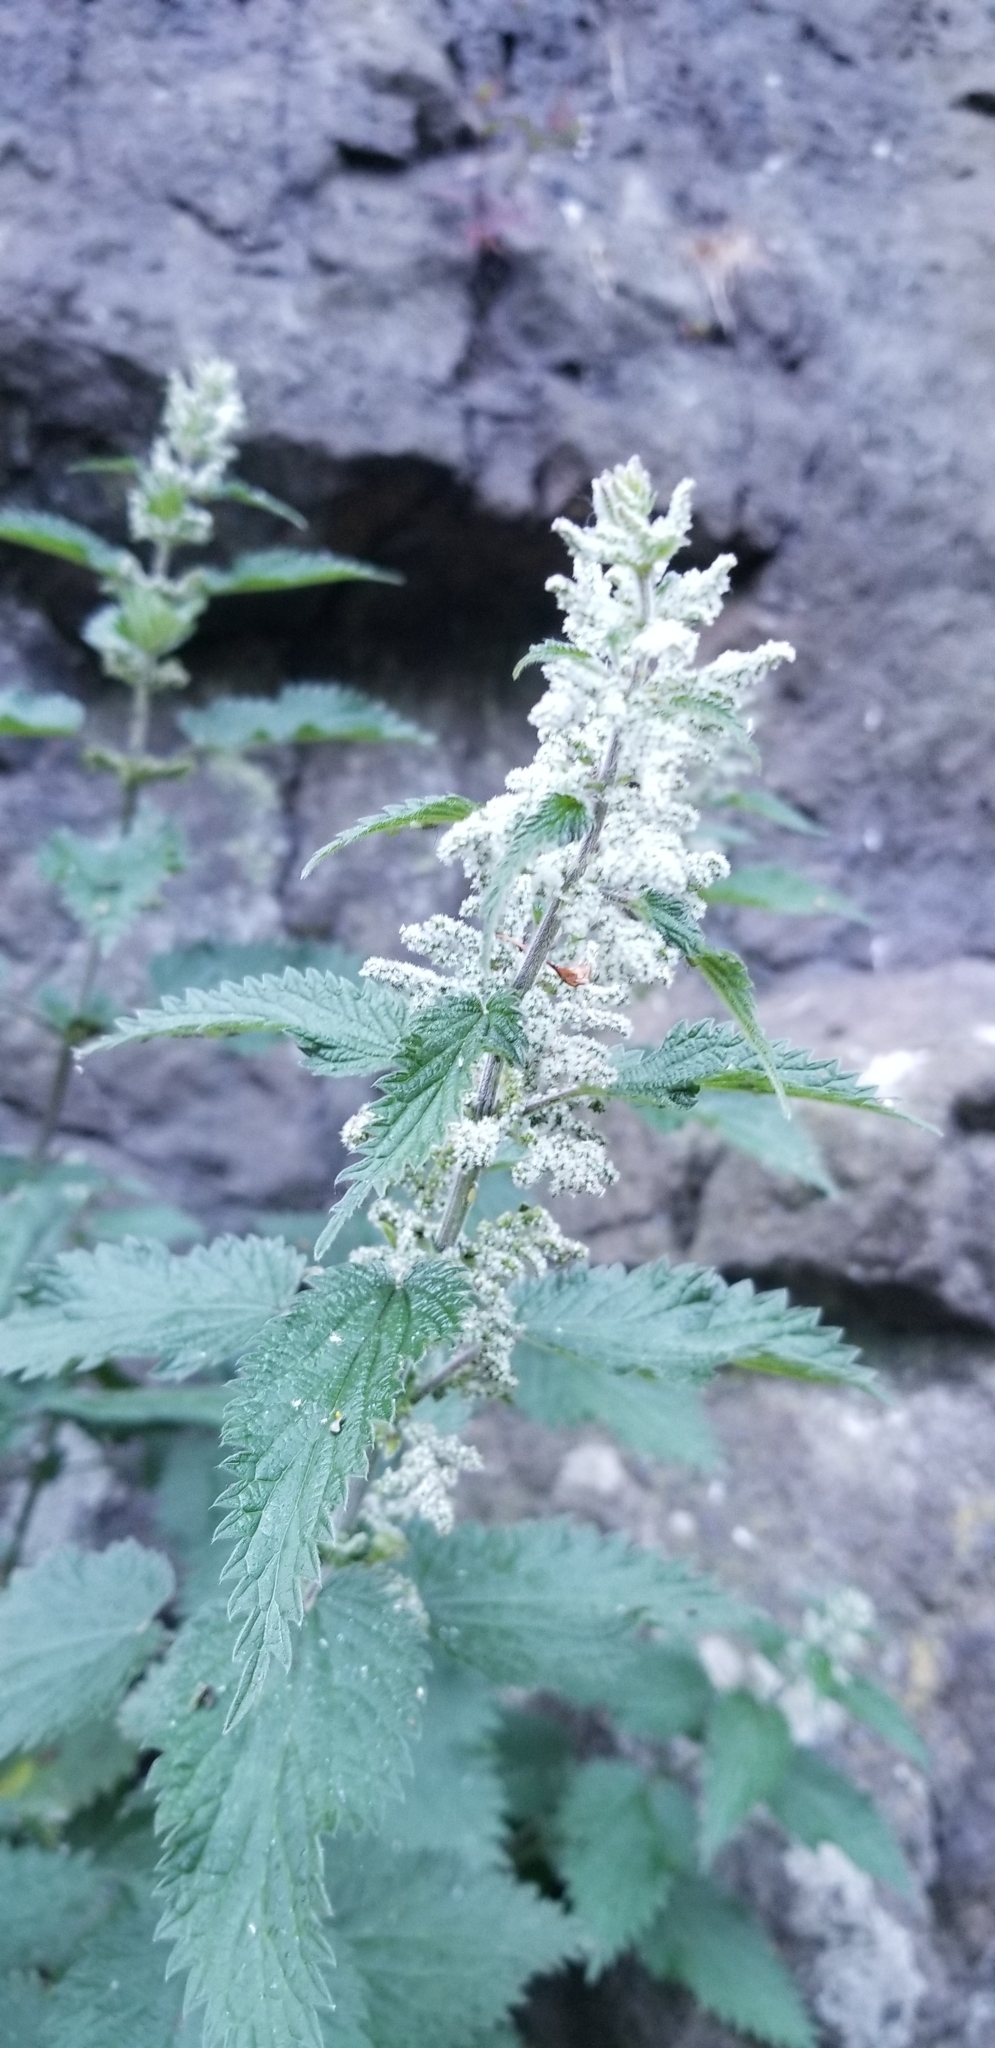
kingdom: Plantae
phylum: Tracheophyta
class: Magnoliopsida
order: Rosales
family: Urticaceae
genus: Urtica
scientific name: Urtica dioica
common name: Common nettle
